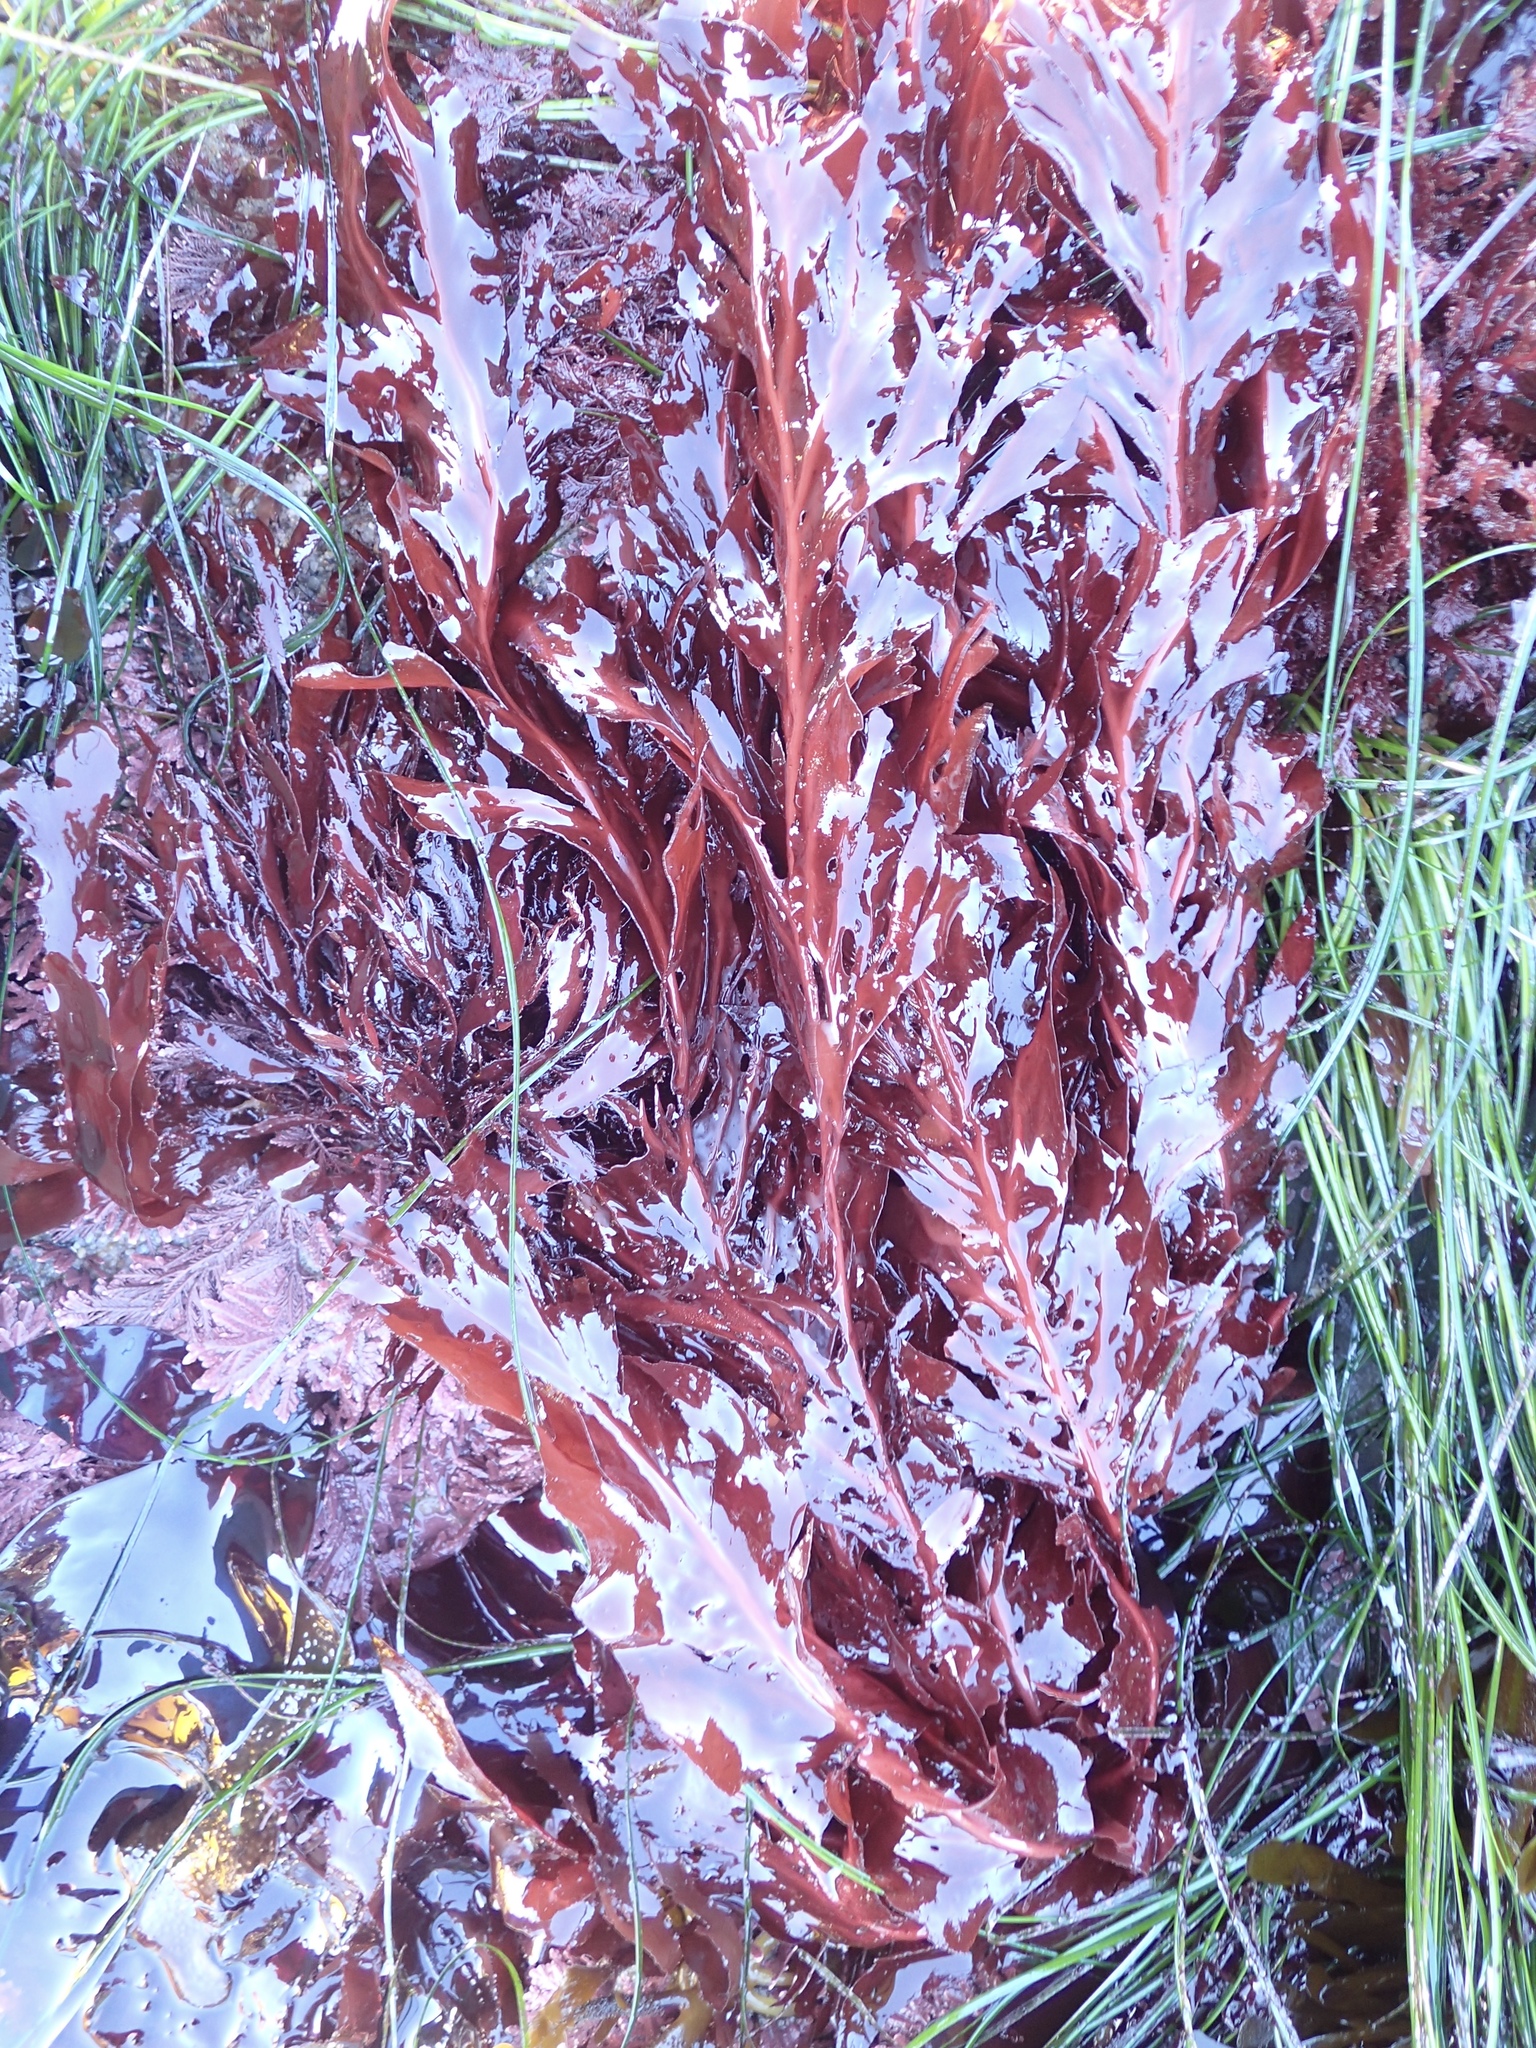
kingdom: Plantae
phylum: Rhodophyta
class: Florideophyceae
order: Gigartinales
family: Kallymeniaceae
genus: Erythrophyllum
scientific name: Erythrophyllum delesserioides
